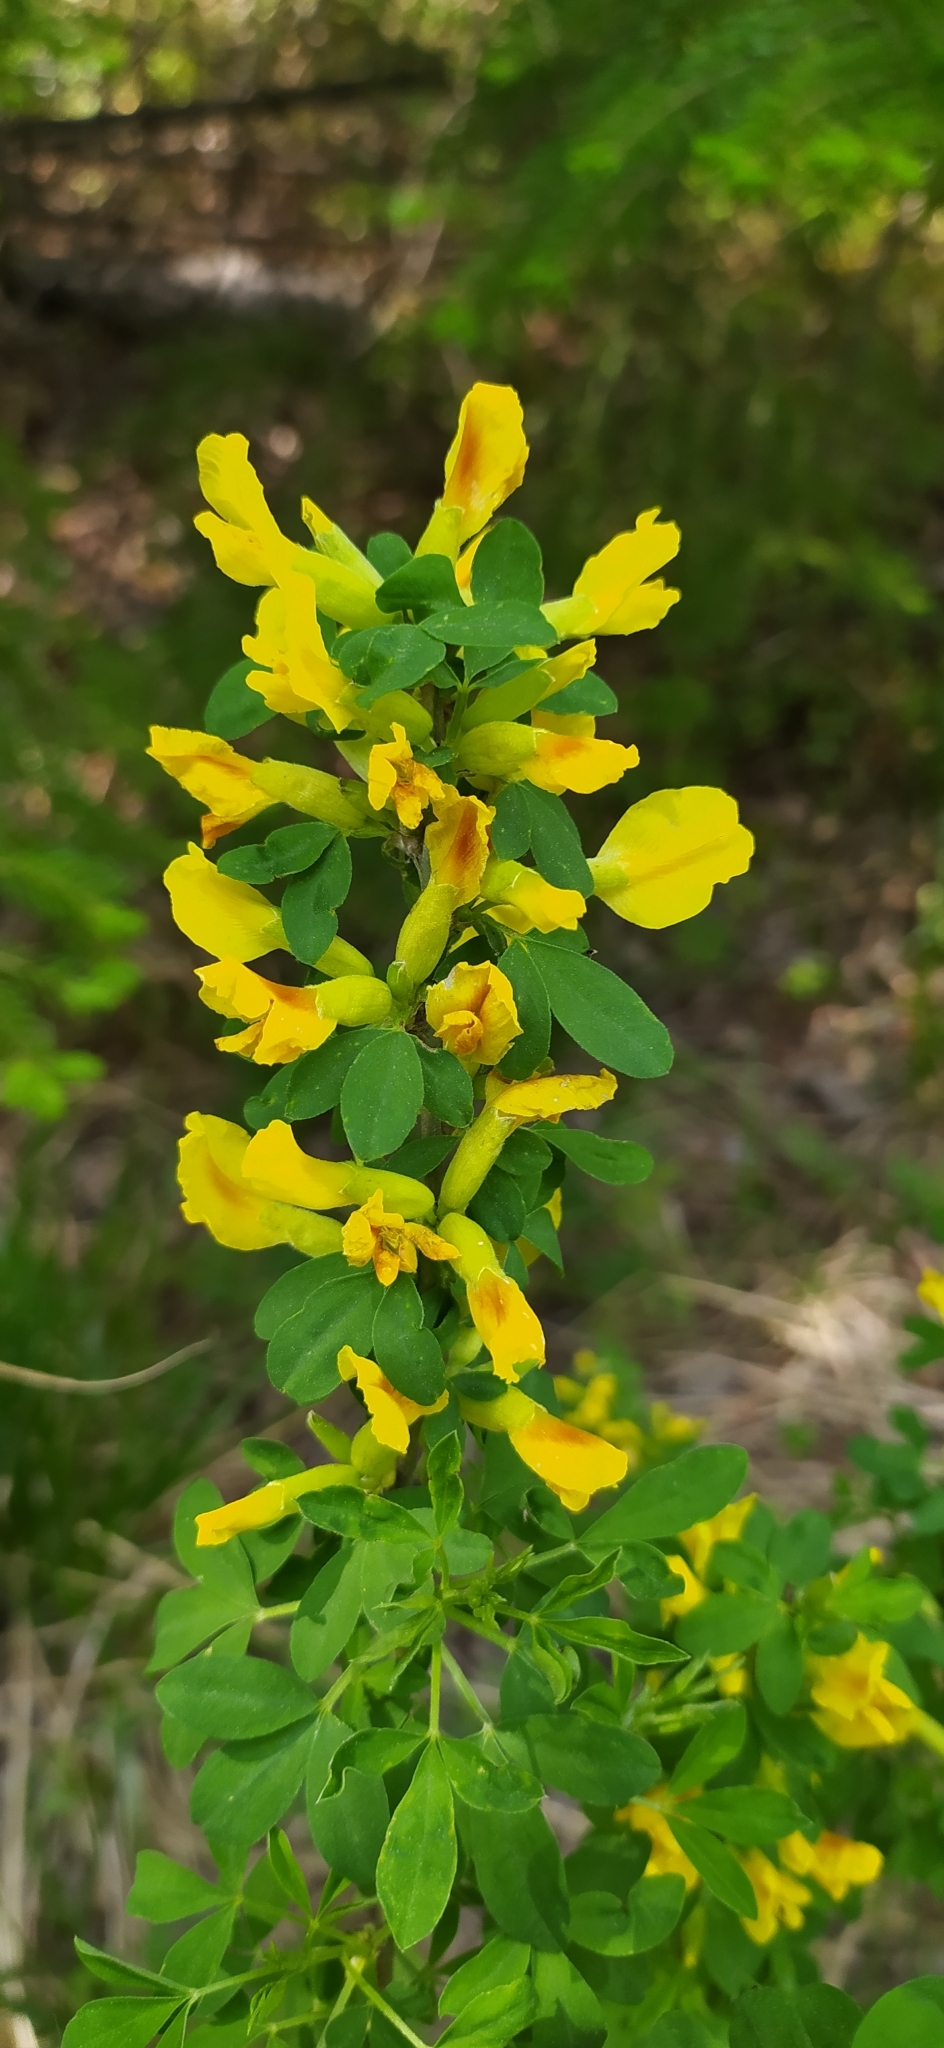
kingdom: Plantae
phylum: Tracheophyta
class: Magnoliopsida
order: Fabales
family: Fabaceae
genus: Chamaecytisus
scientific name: Chamaecytisus ruthenicus
